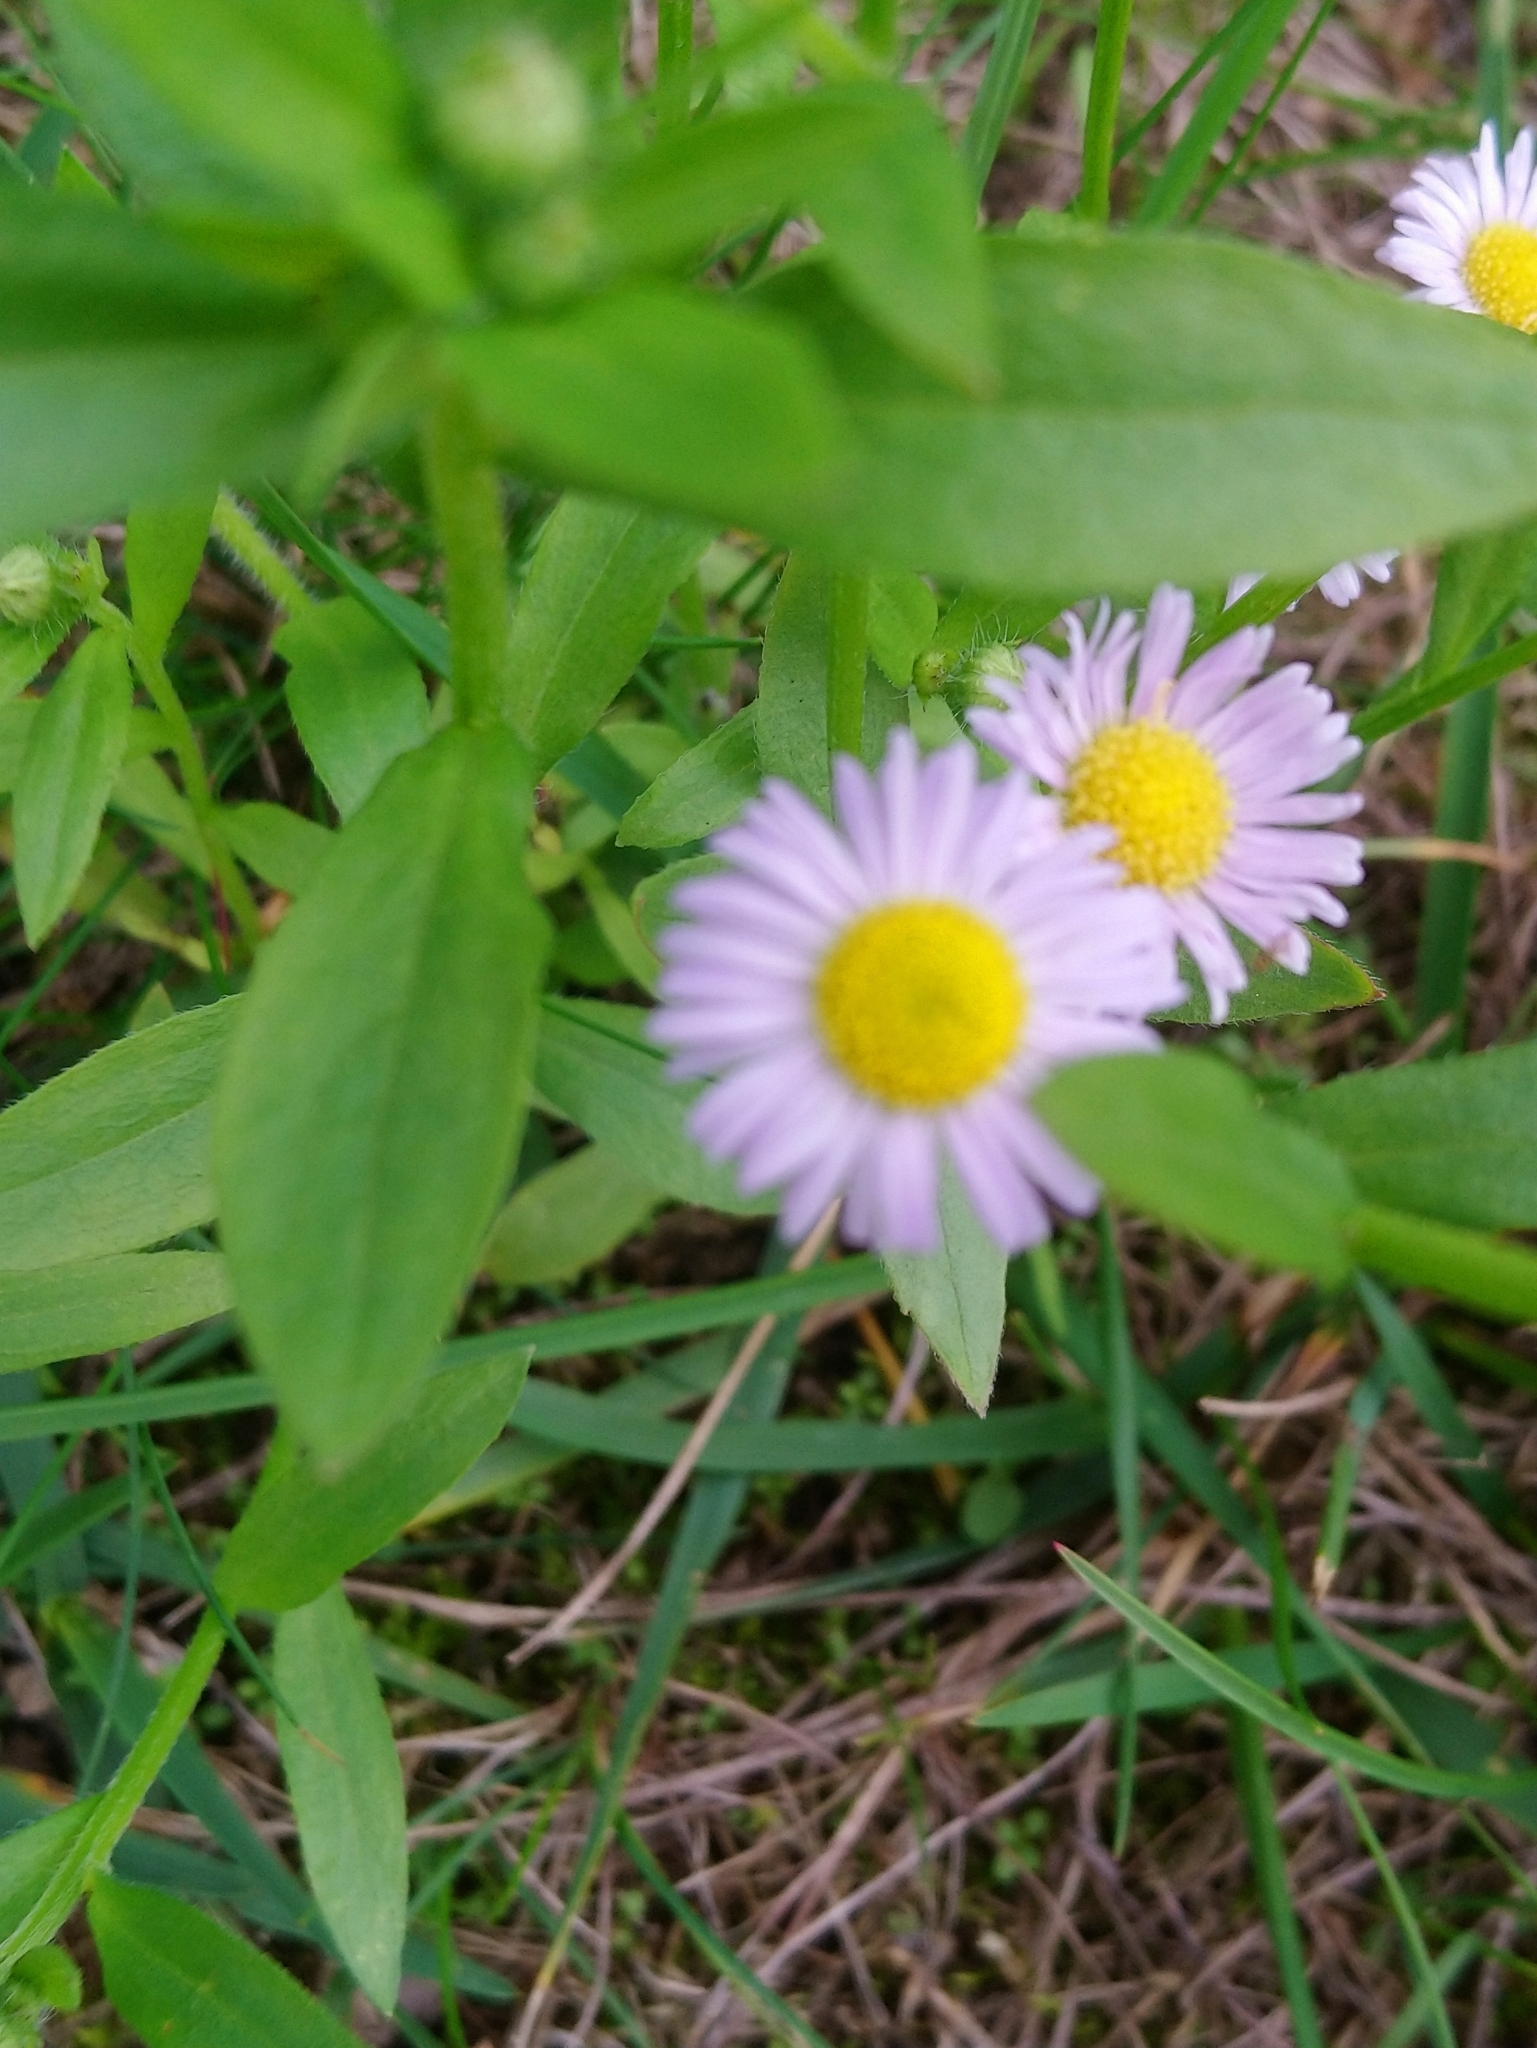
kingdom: Plantae
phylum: Tracheophyta
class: Magnoliopsida
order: Asterales
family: Asteraceae
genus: Erigeron
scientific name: Erigeron annuus
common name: Tall fleabane
